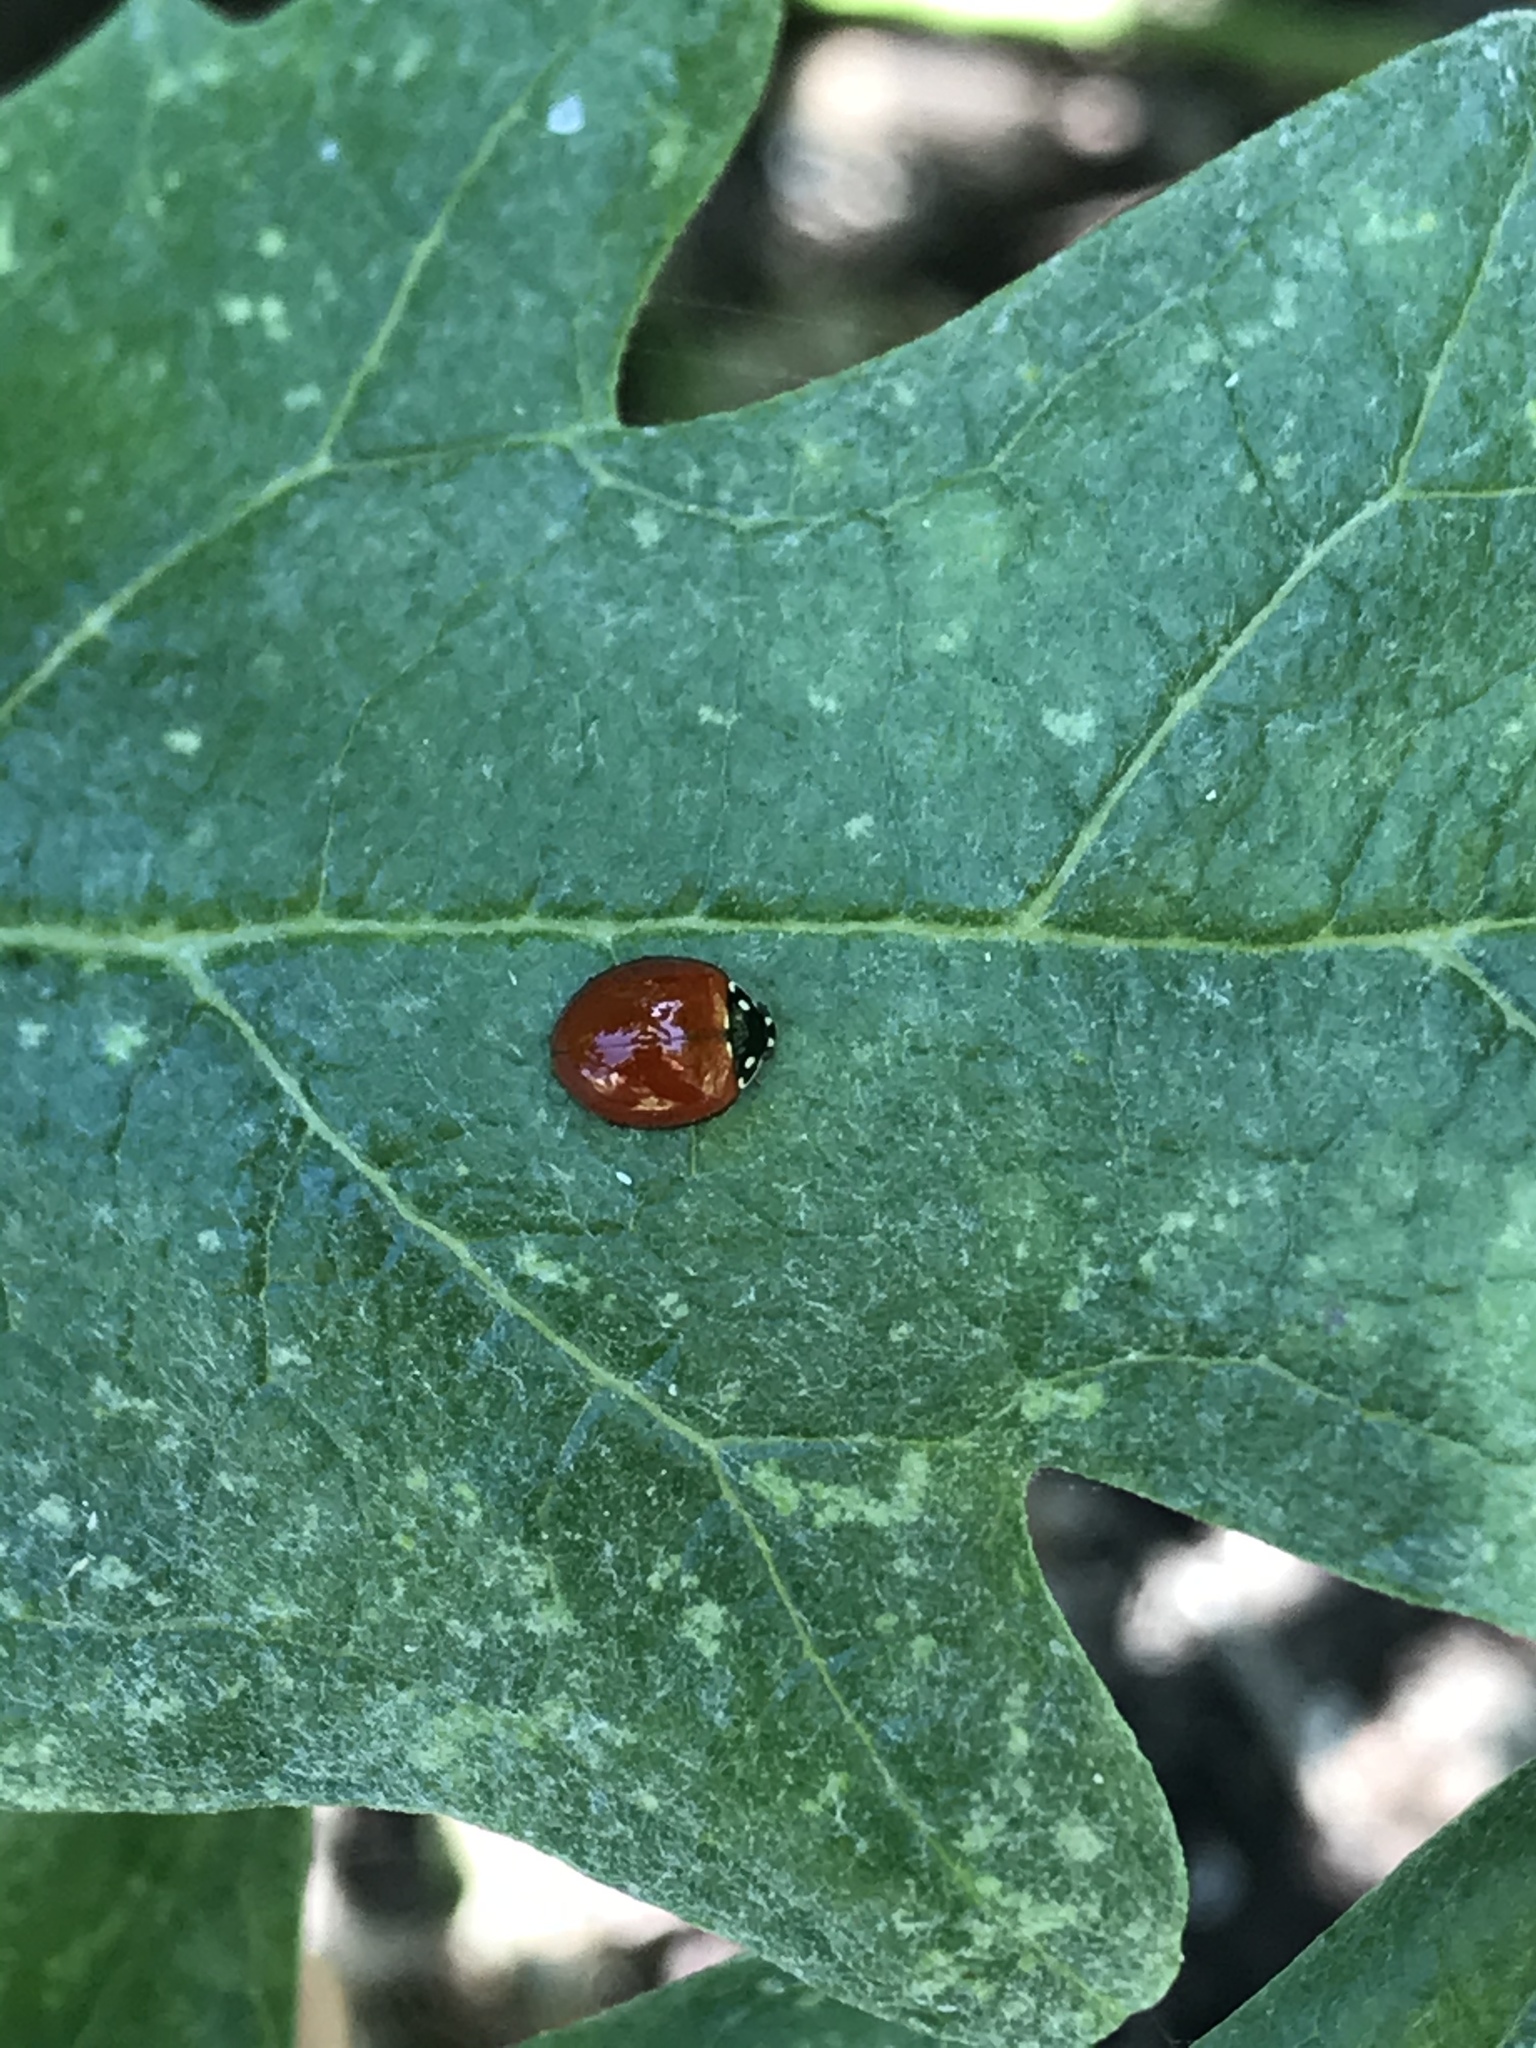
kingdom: Animalia
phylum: Arthropoda
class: Insecta
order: Coleoptera
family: Coccinellidae
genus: Cycloneda
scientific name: Cycloneda sanguinea
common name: Ladybird beetle
